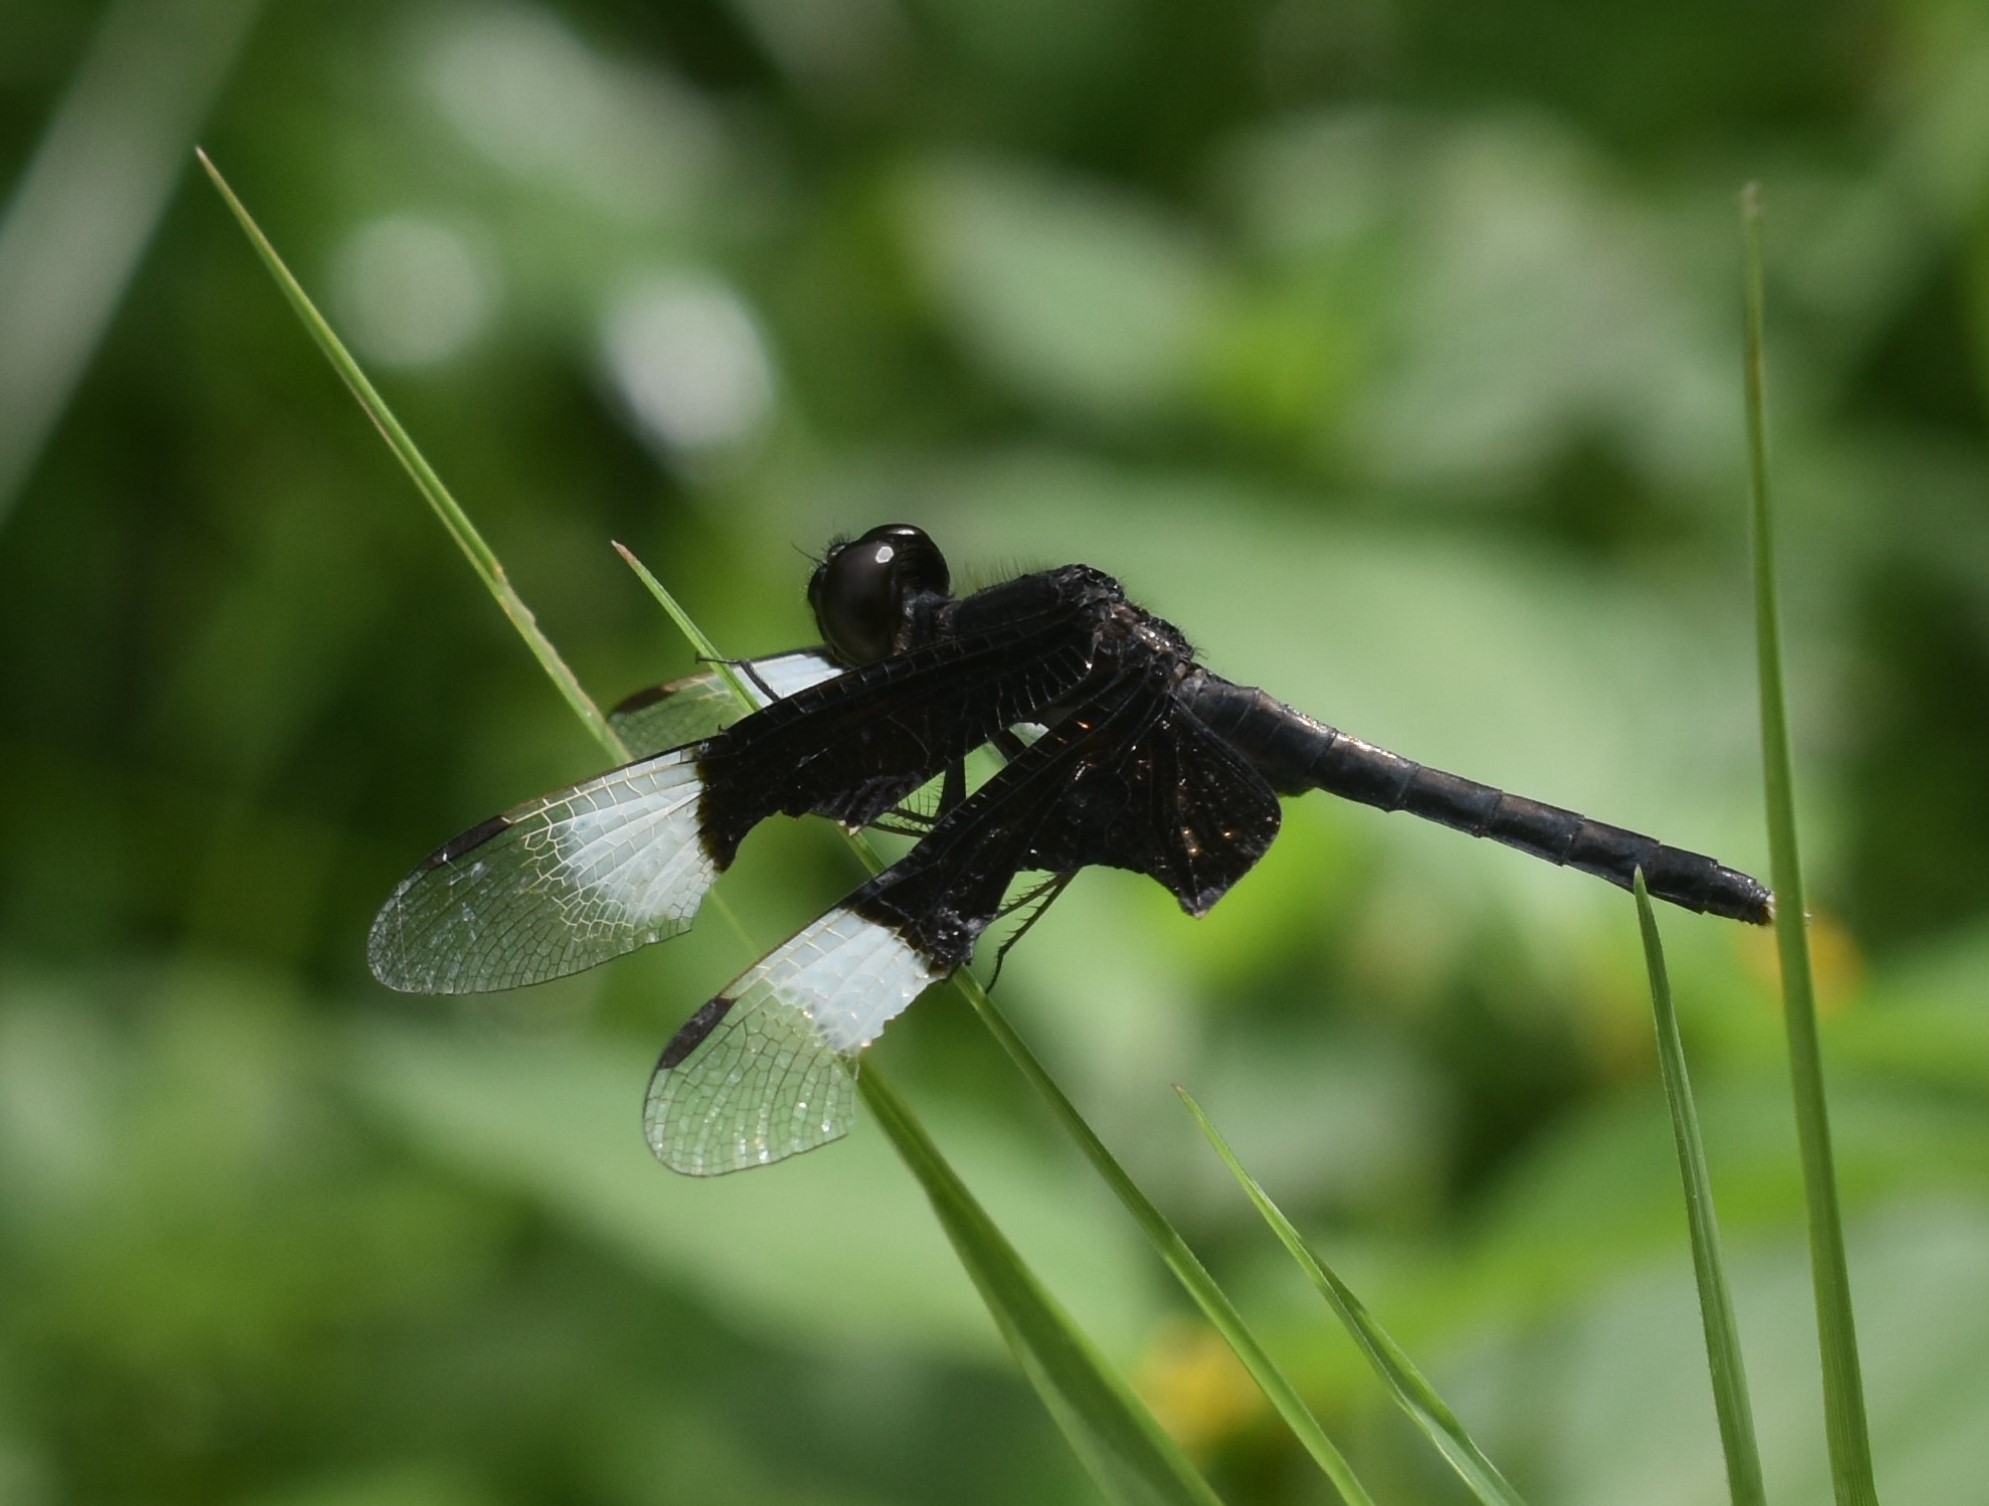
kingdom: Animalia
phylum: Arthropoda
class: Insecta
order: Odonata
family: Libellulidae
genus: Neurothemis
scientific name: Neurothemis tullia
